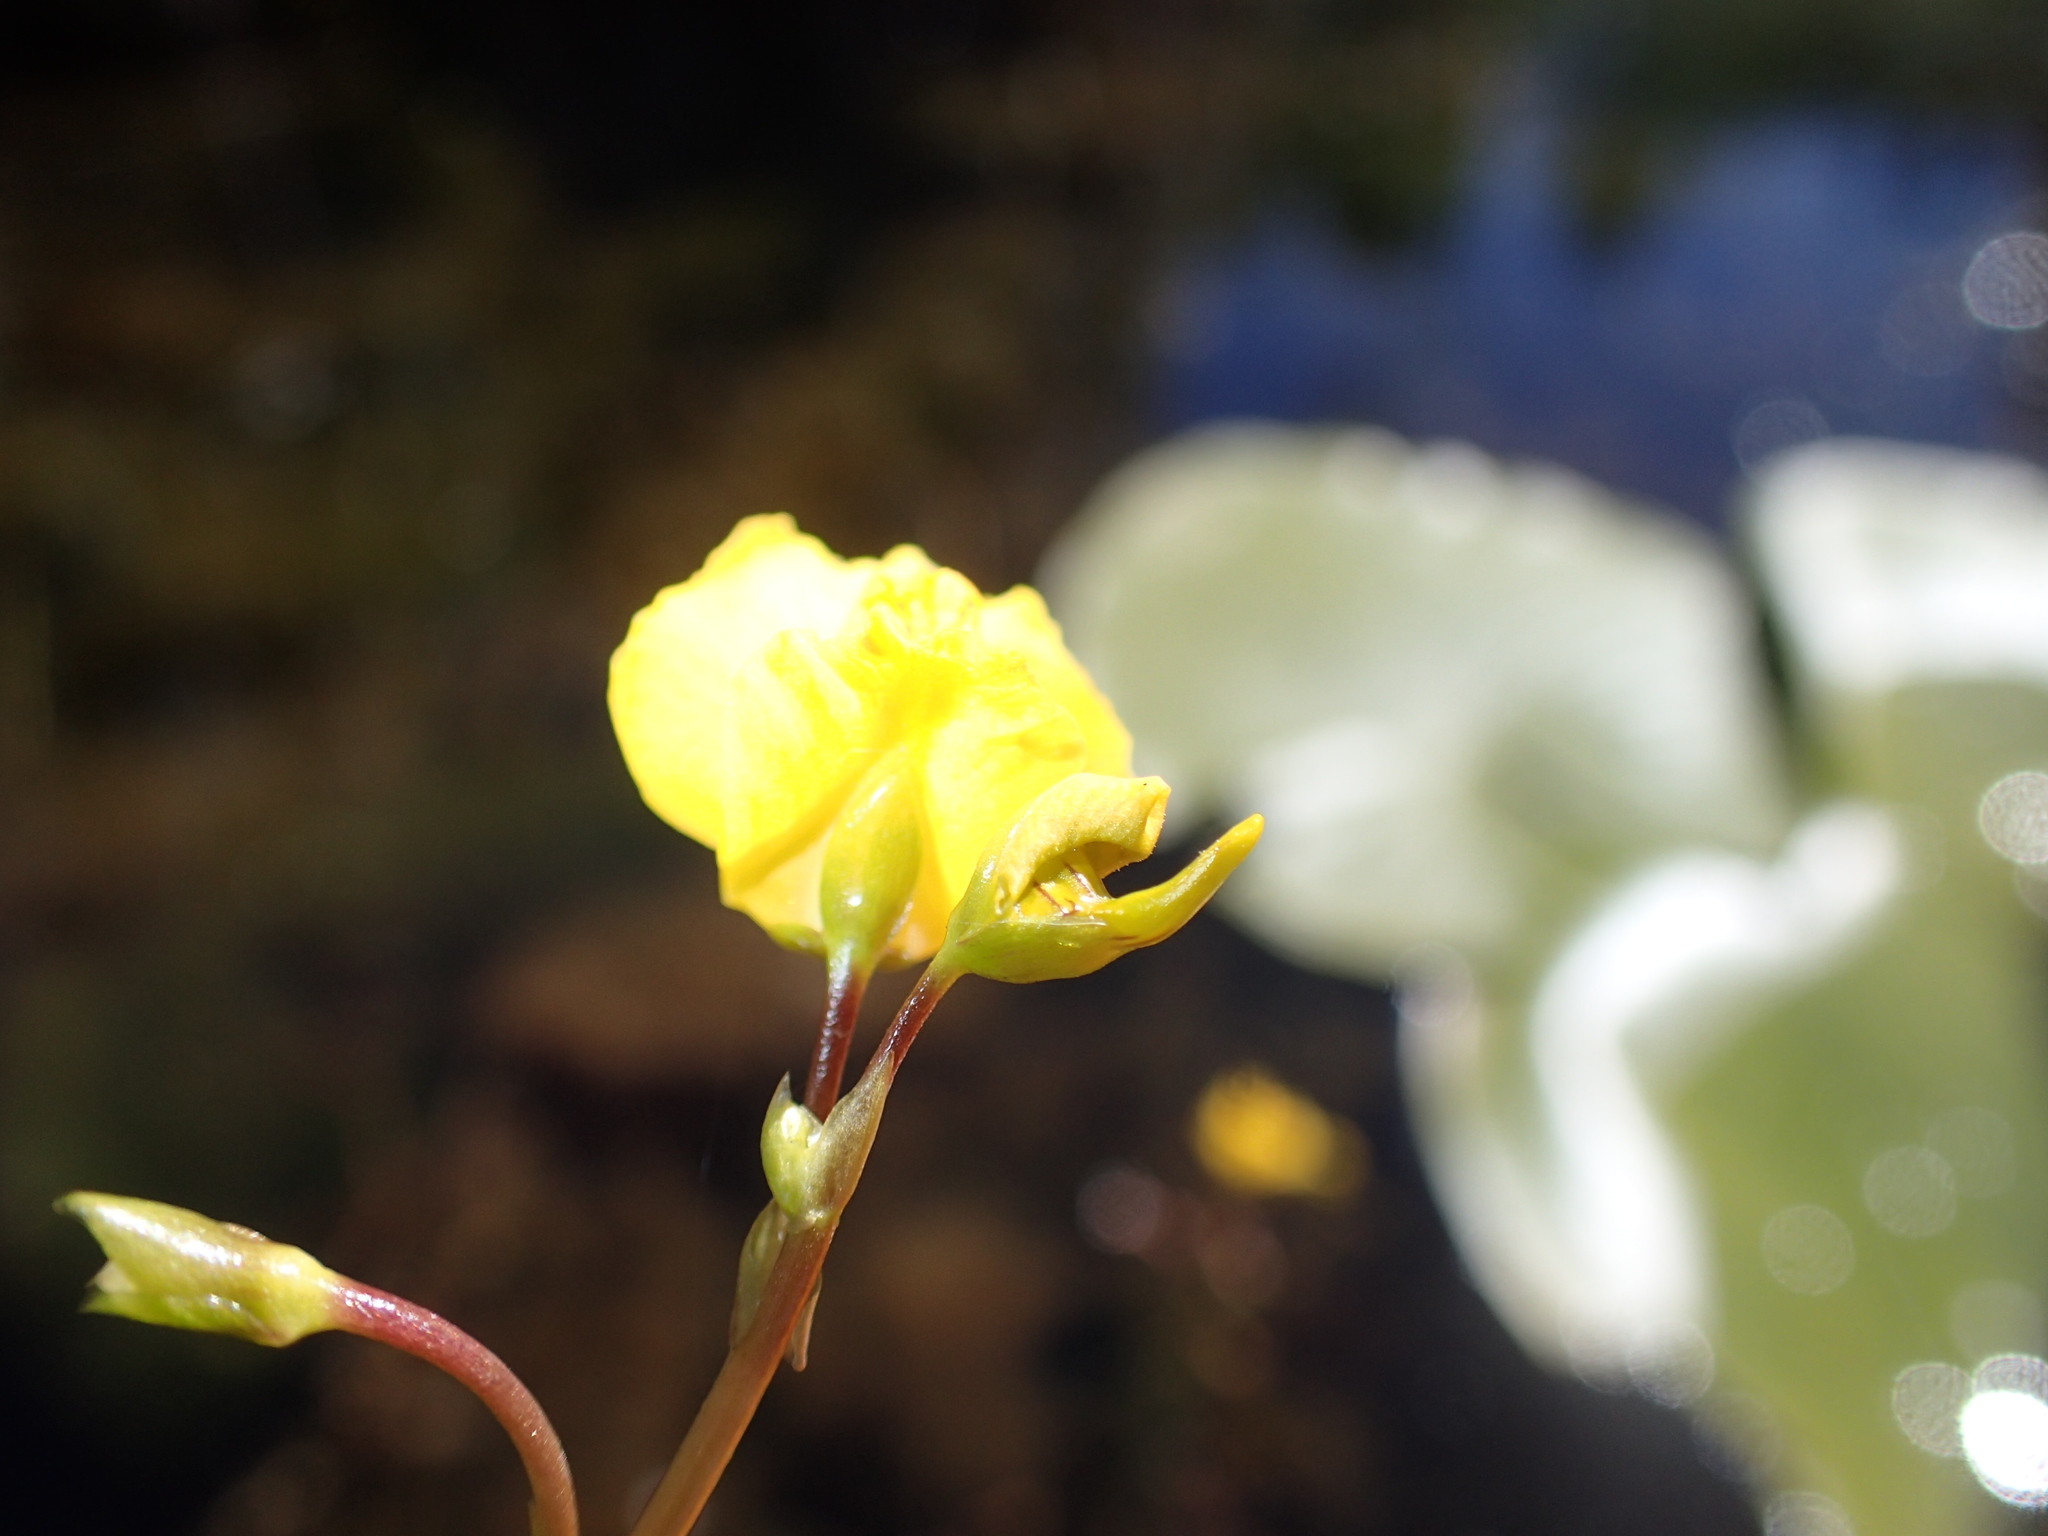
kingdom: Plantae
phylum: Tracheophyta
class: Magnoliopsida
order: Lamiales
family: Lentibulariaceae
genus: Utricularia
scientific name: Utricularia macrorhiza
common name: Common bladderwort
